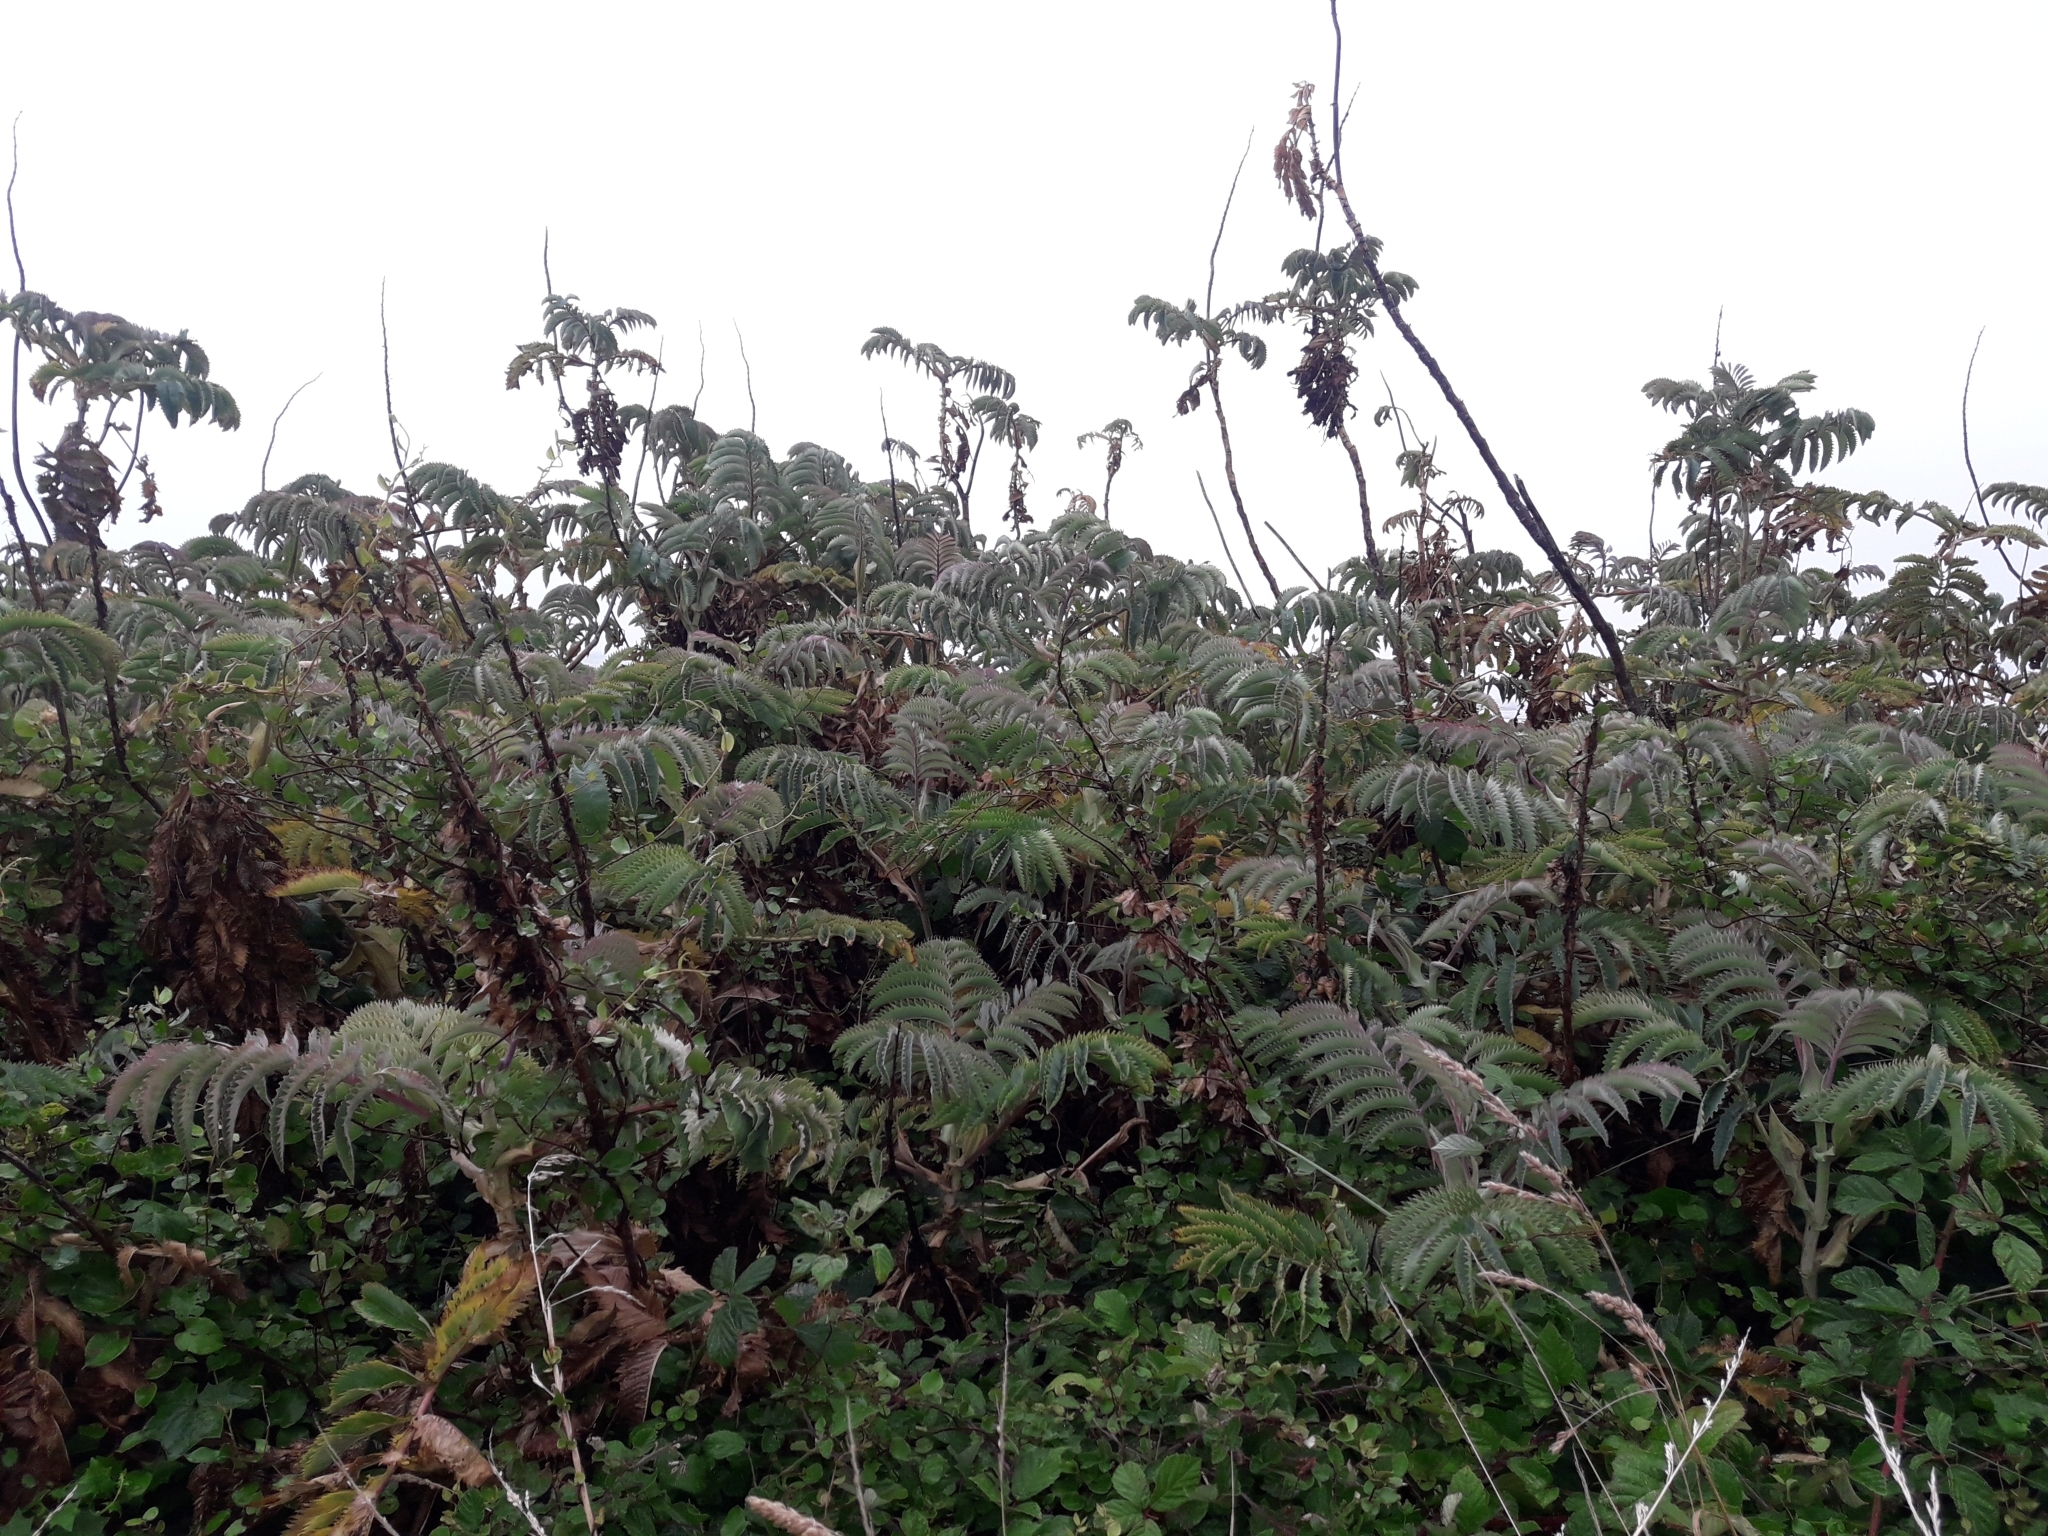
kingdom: Plantae
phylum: Tracheophyta
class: Magnoliopsida
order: Geraniales
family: Melianthaceae
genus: Melianthus
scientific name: Melianthus major
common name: Honey-flower
